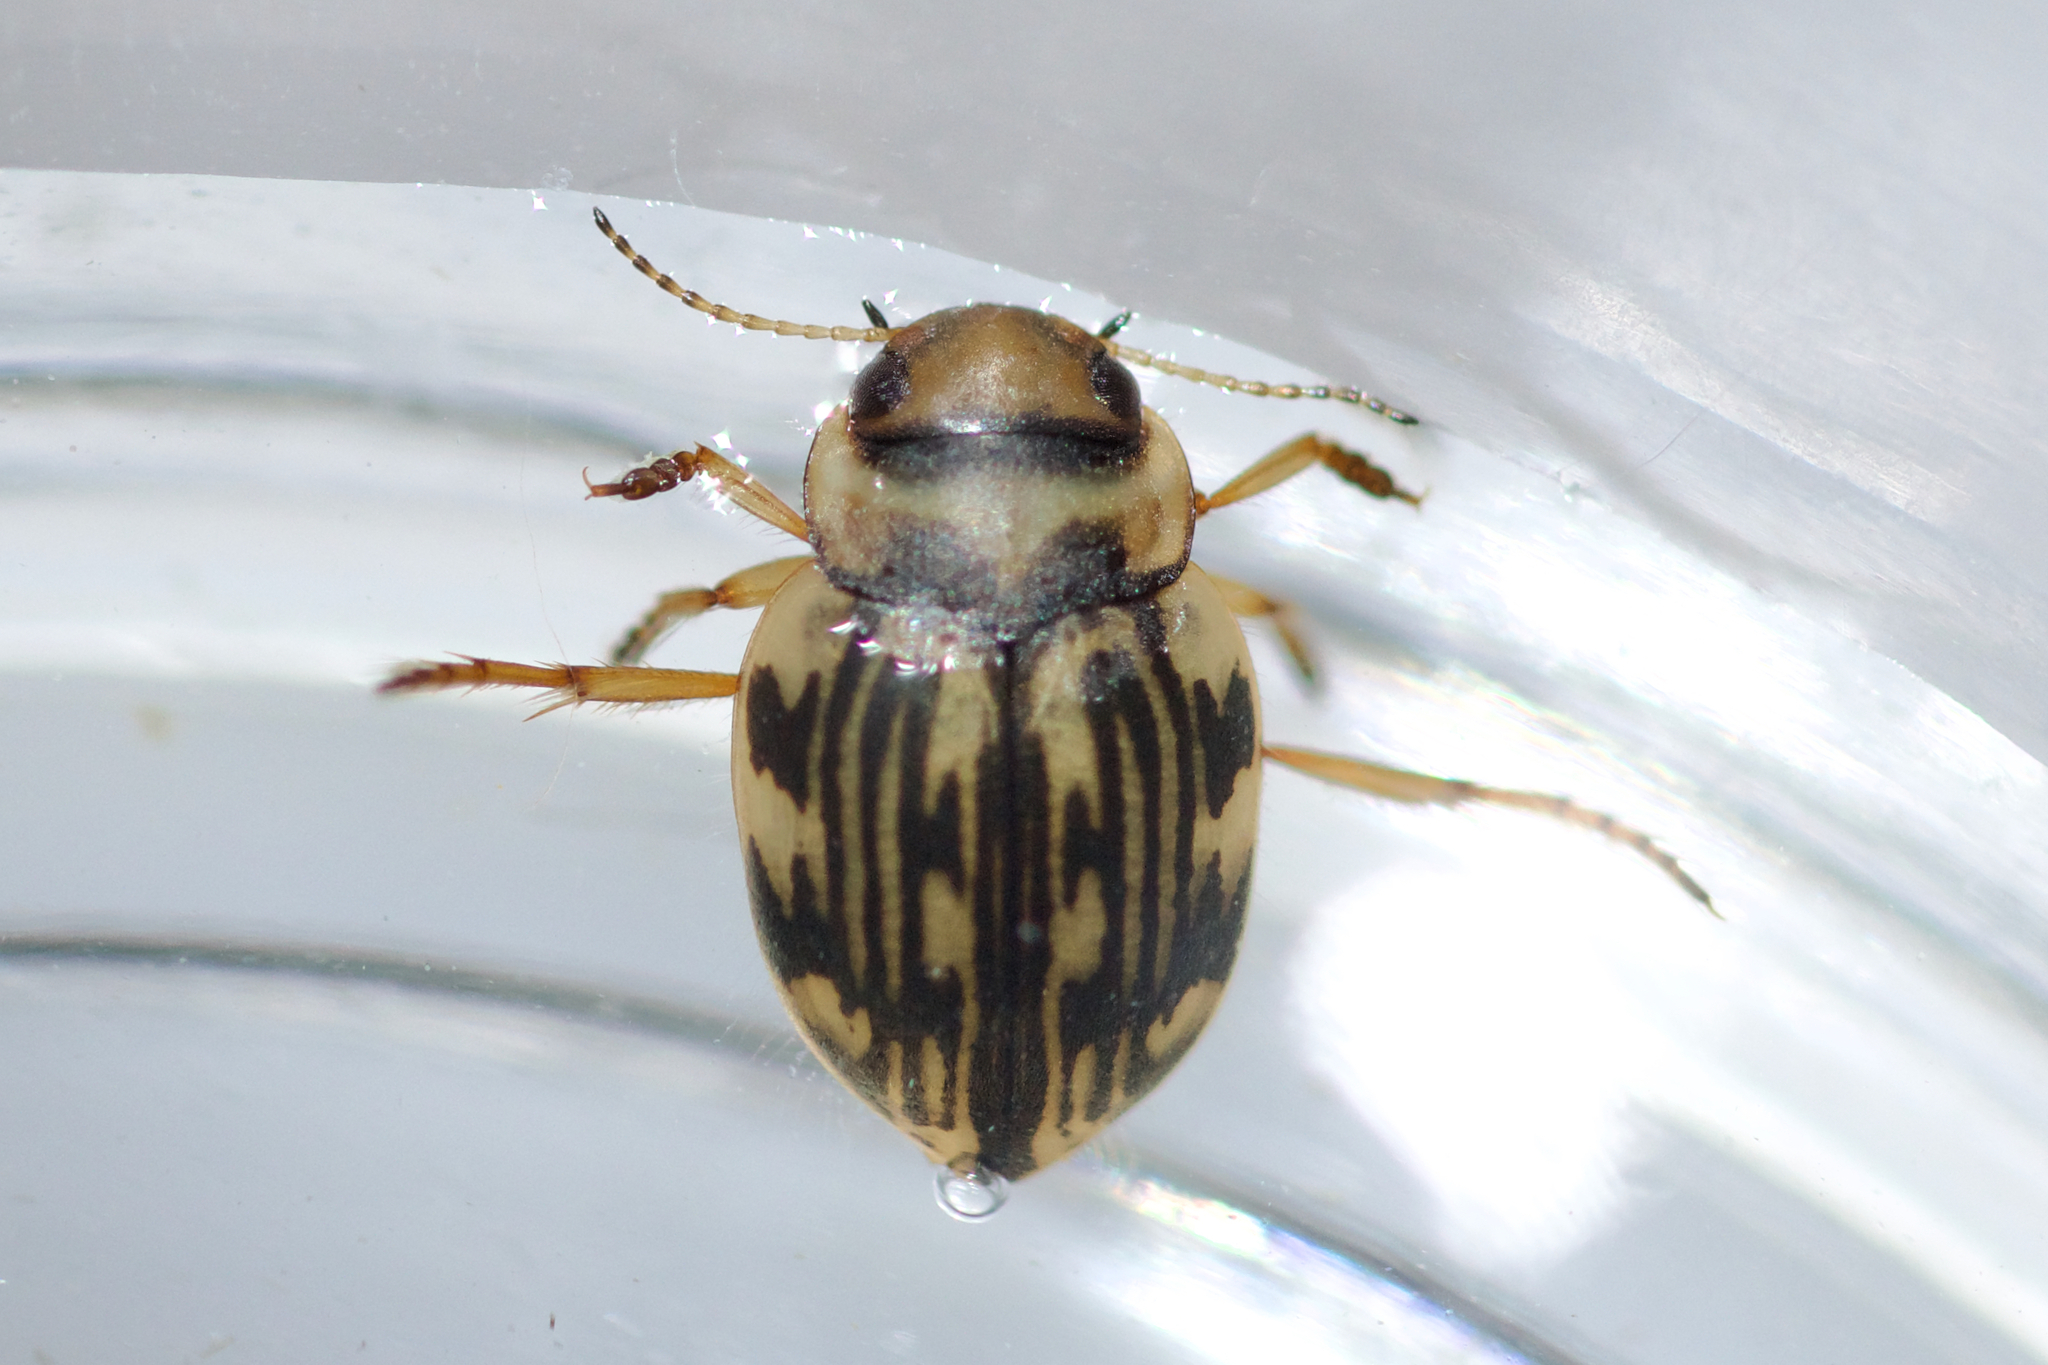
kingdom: Animalia
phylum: Arthropoda
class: Insecta
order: Coleoptera
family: Dytiscidae
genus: Nebrioporus
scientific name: Nebrioporus macronychus
